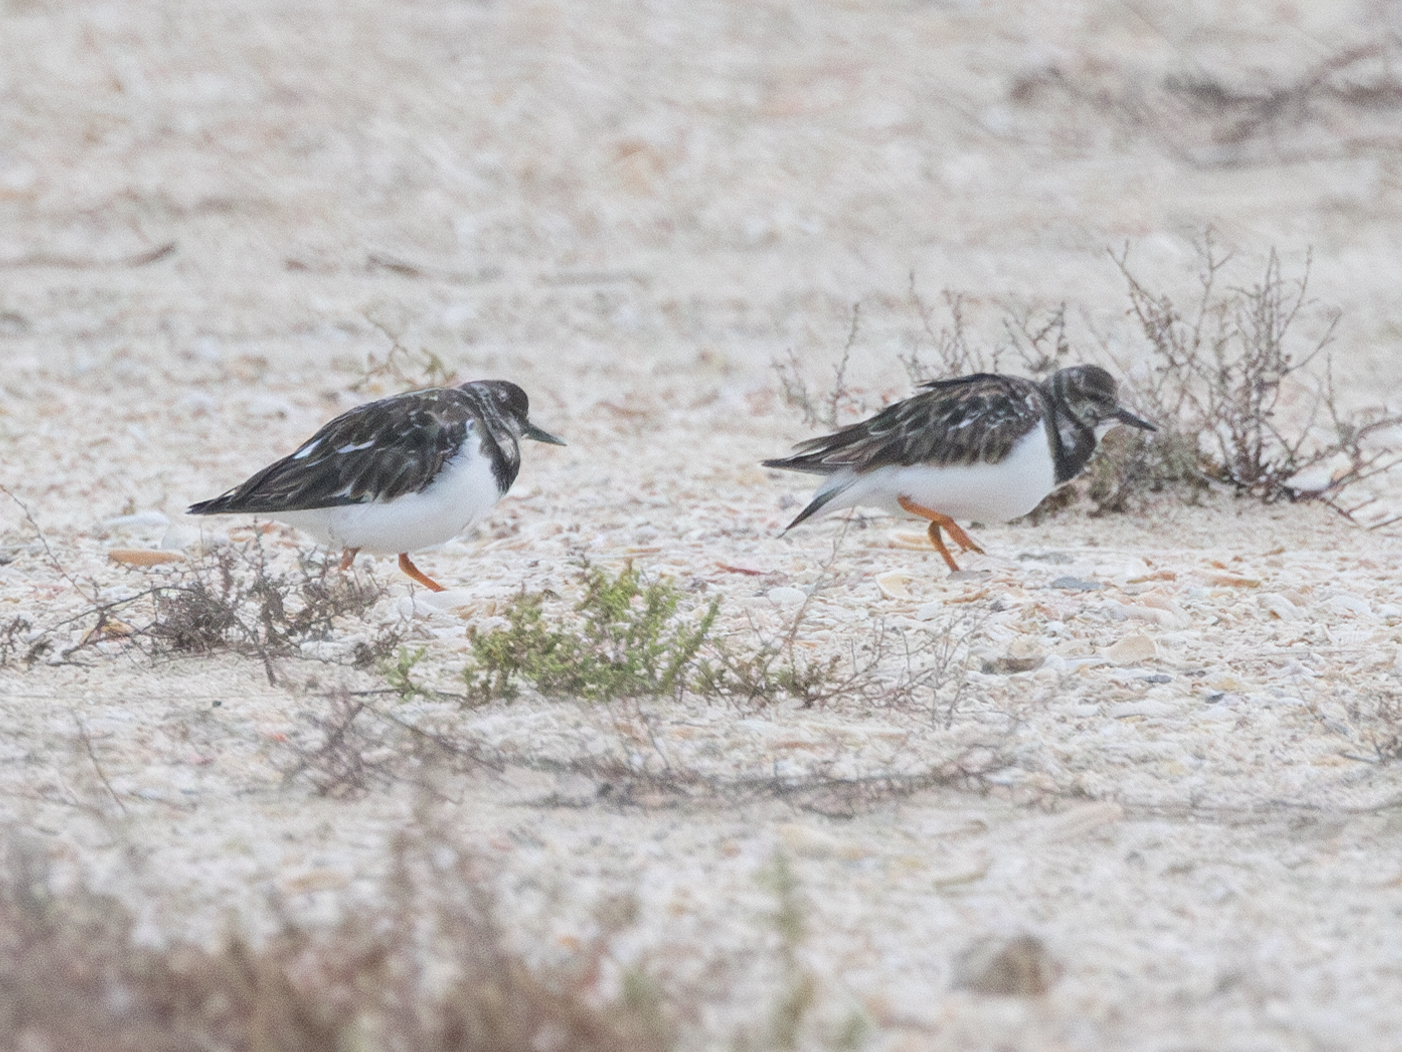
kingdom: Animalia
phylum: Chordata
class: Aves
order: Charadriiformes
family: Scolopacidae
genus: Arenaria
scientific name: Arenaria interpres
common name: Ruddy turnstone
